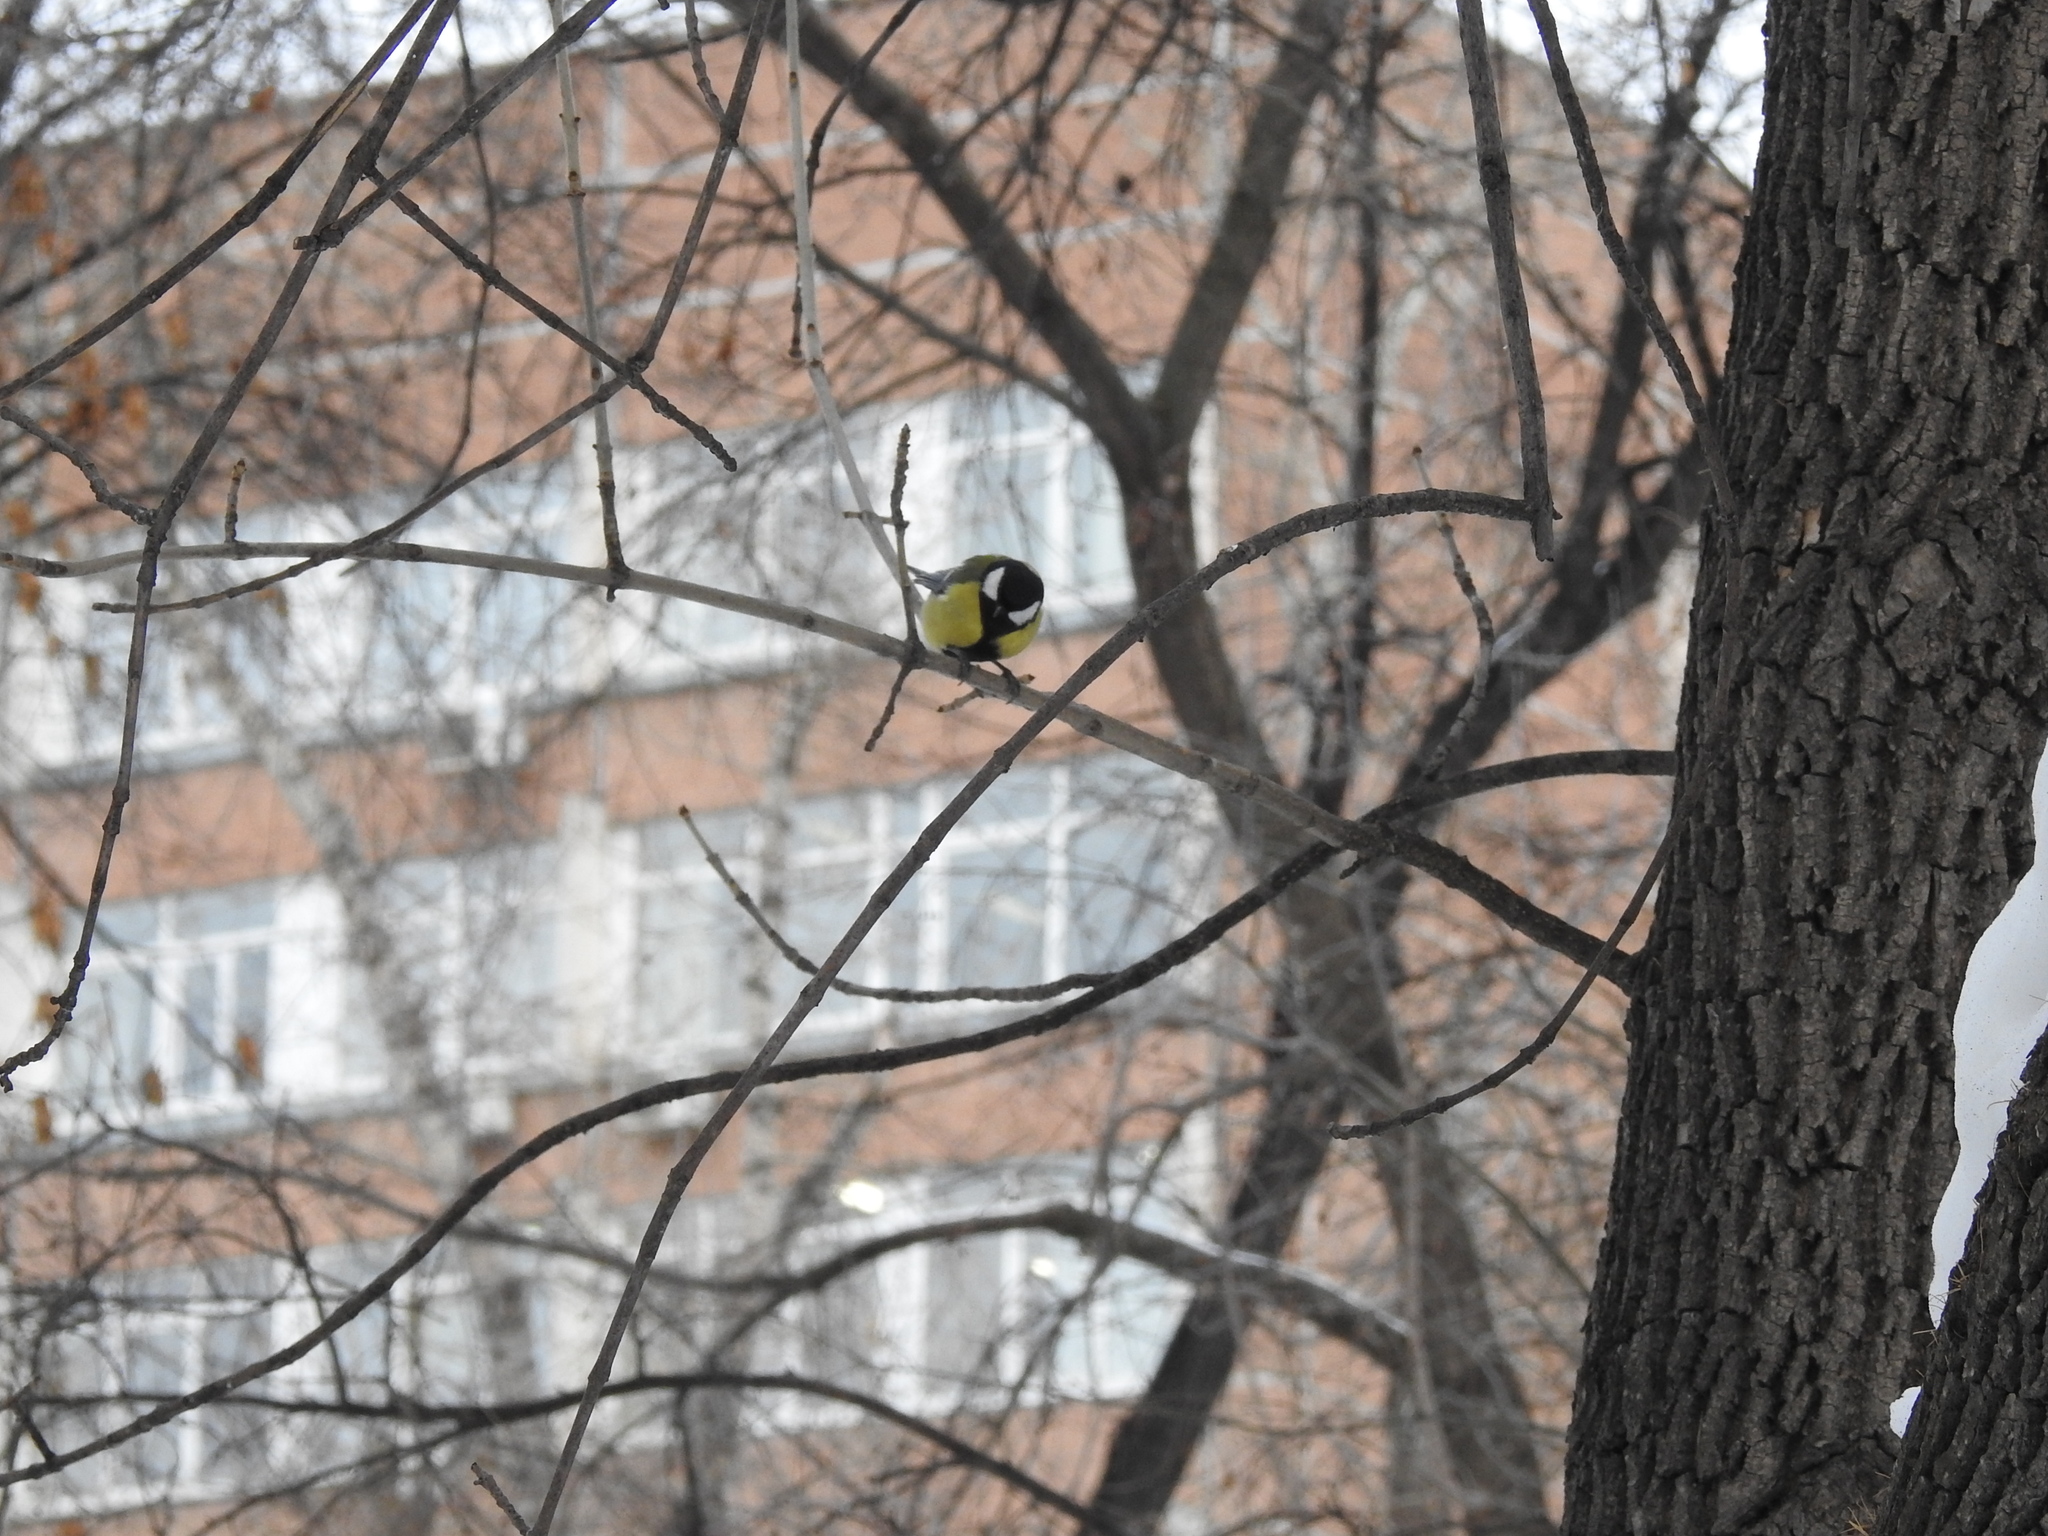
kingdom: Animalia
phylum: Chordata
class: Aves
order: Passeriformes
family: Paridae
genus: Parus
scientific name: Parus major
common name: Great tit
